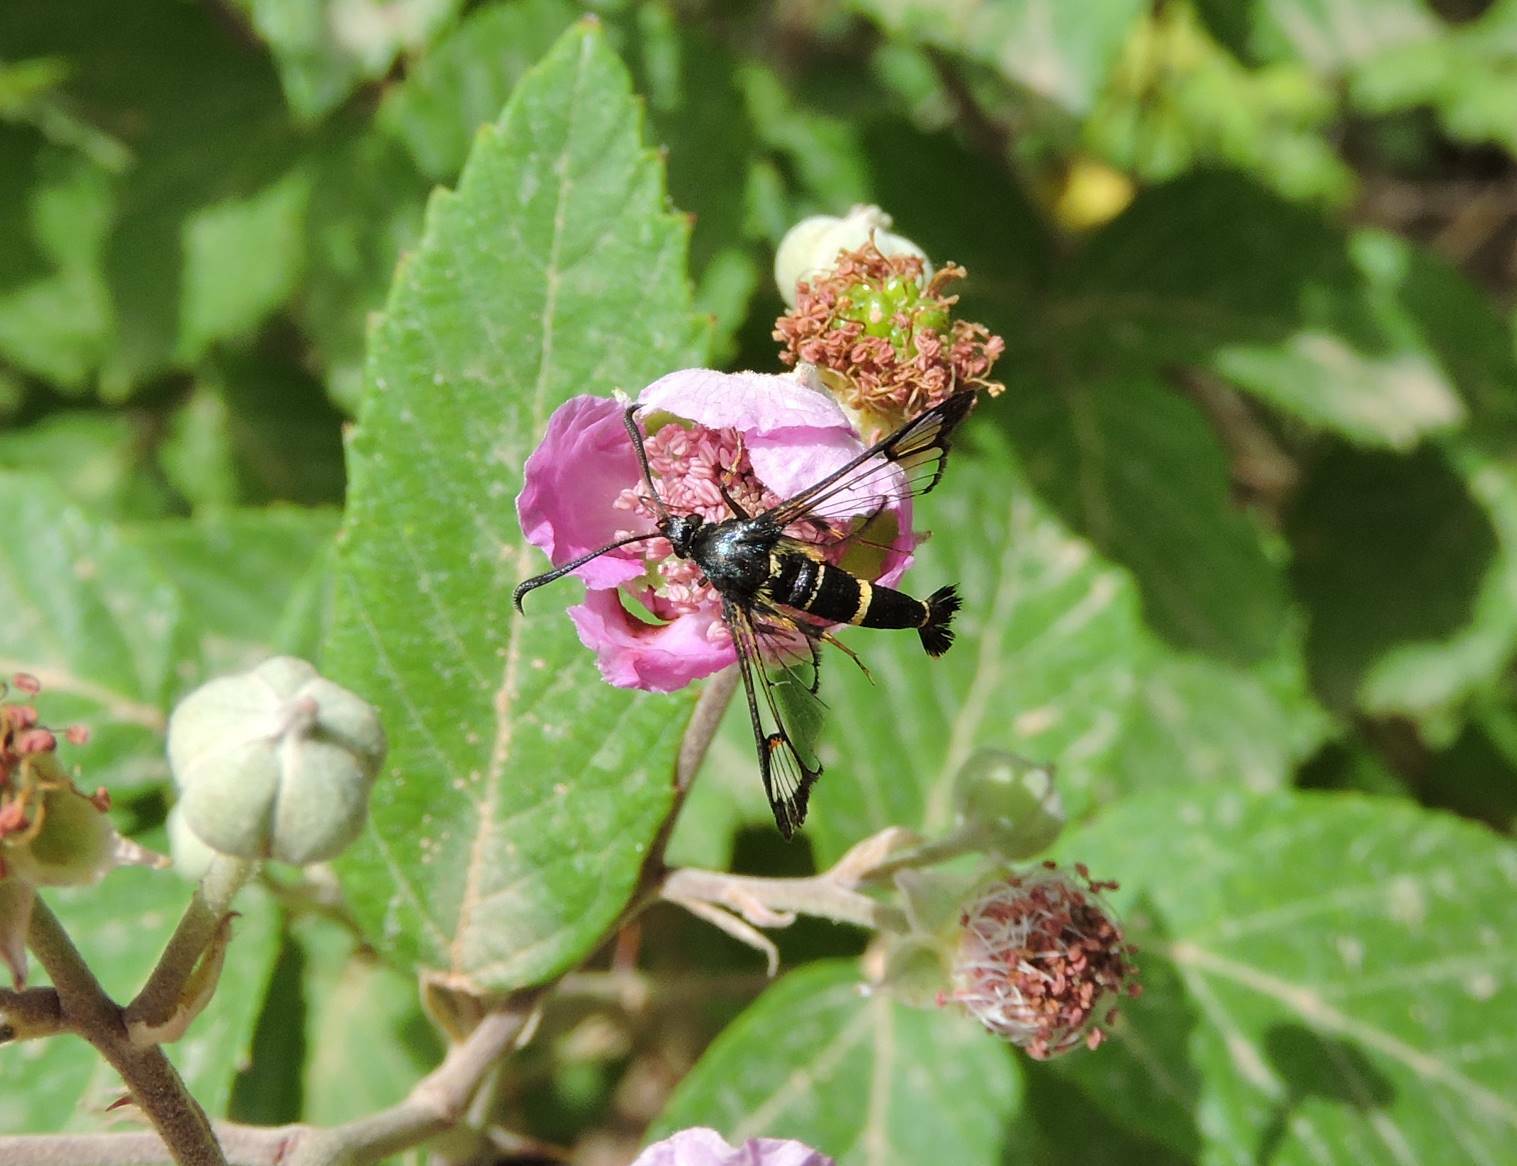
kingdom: Animalia
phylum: Arthropoda
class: Insecta
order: Lepidoptera
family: Sesiidae
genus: Synanthedon
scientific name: Synanthedon codeti
